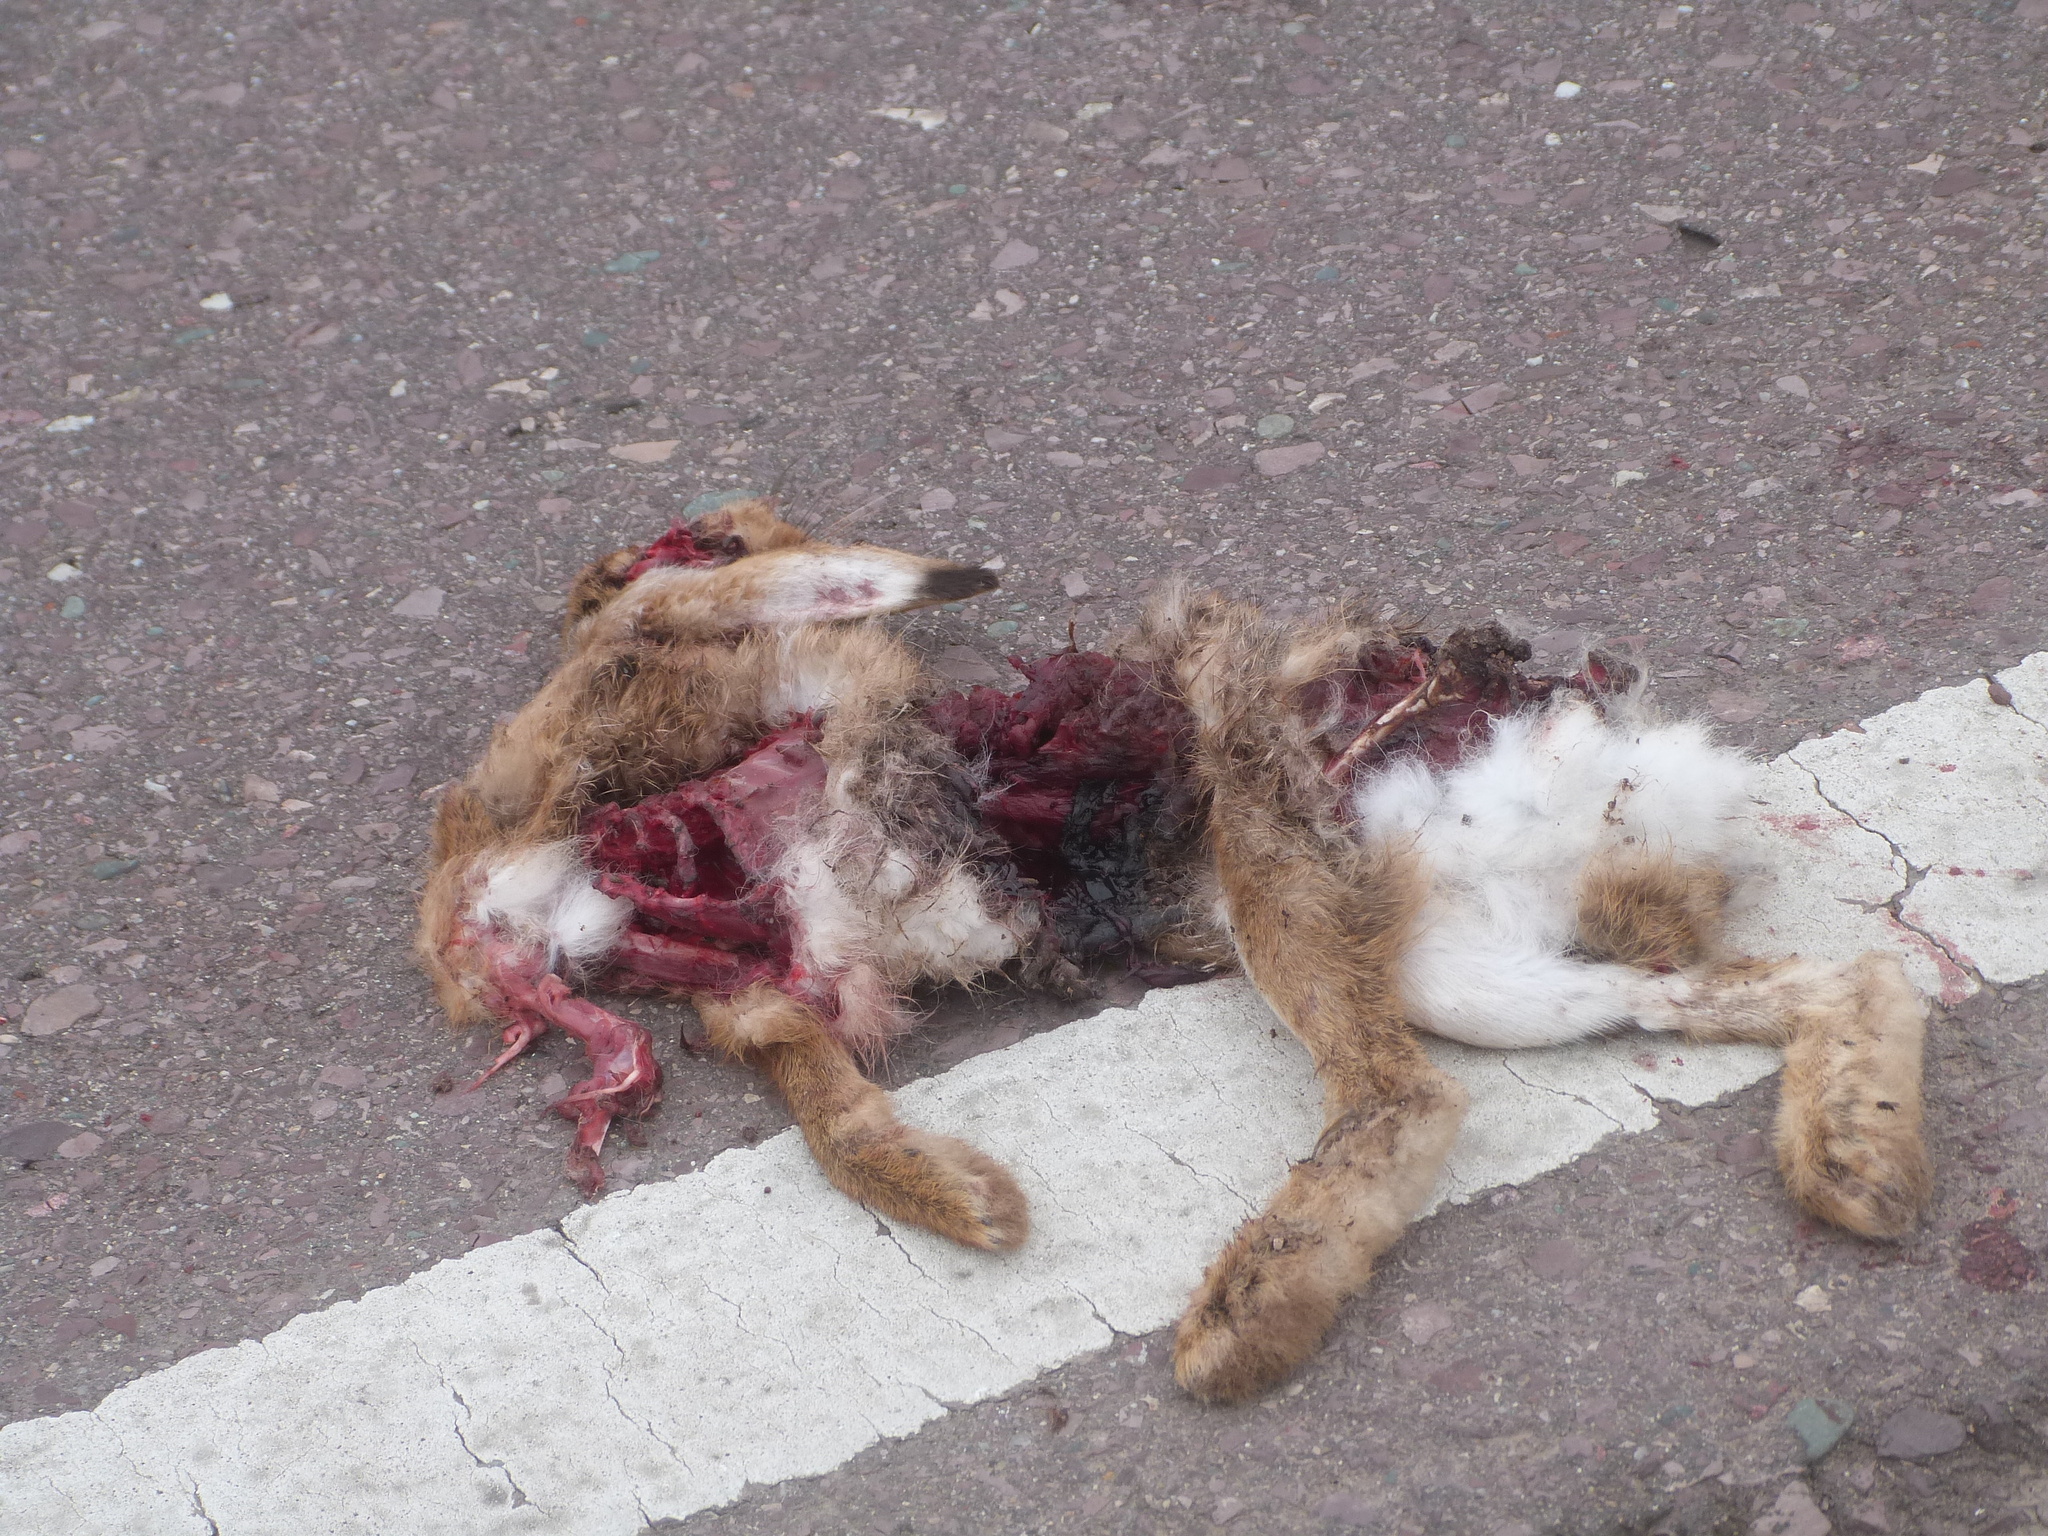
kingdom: Animalia
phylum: Chordata
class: Mammalia
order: Lagomorpha
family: Leporidae
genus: Lepus
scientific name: Lepus europaeus
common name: European hare
